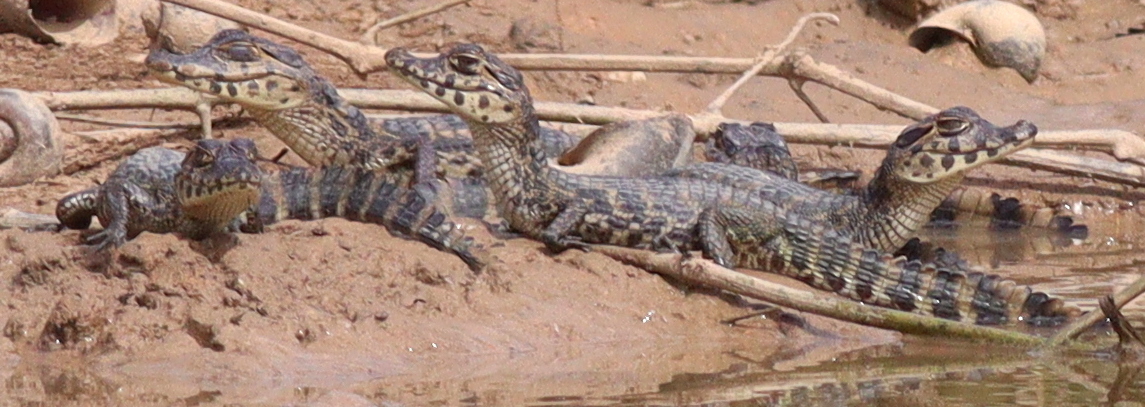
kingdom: Animalia
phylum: Chordata
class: Crocodylia
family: Alligatoridae
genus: Caiman
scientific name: Caiman yacare
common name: Yacare caiman
